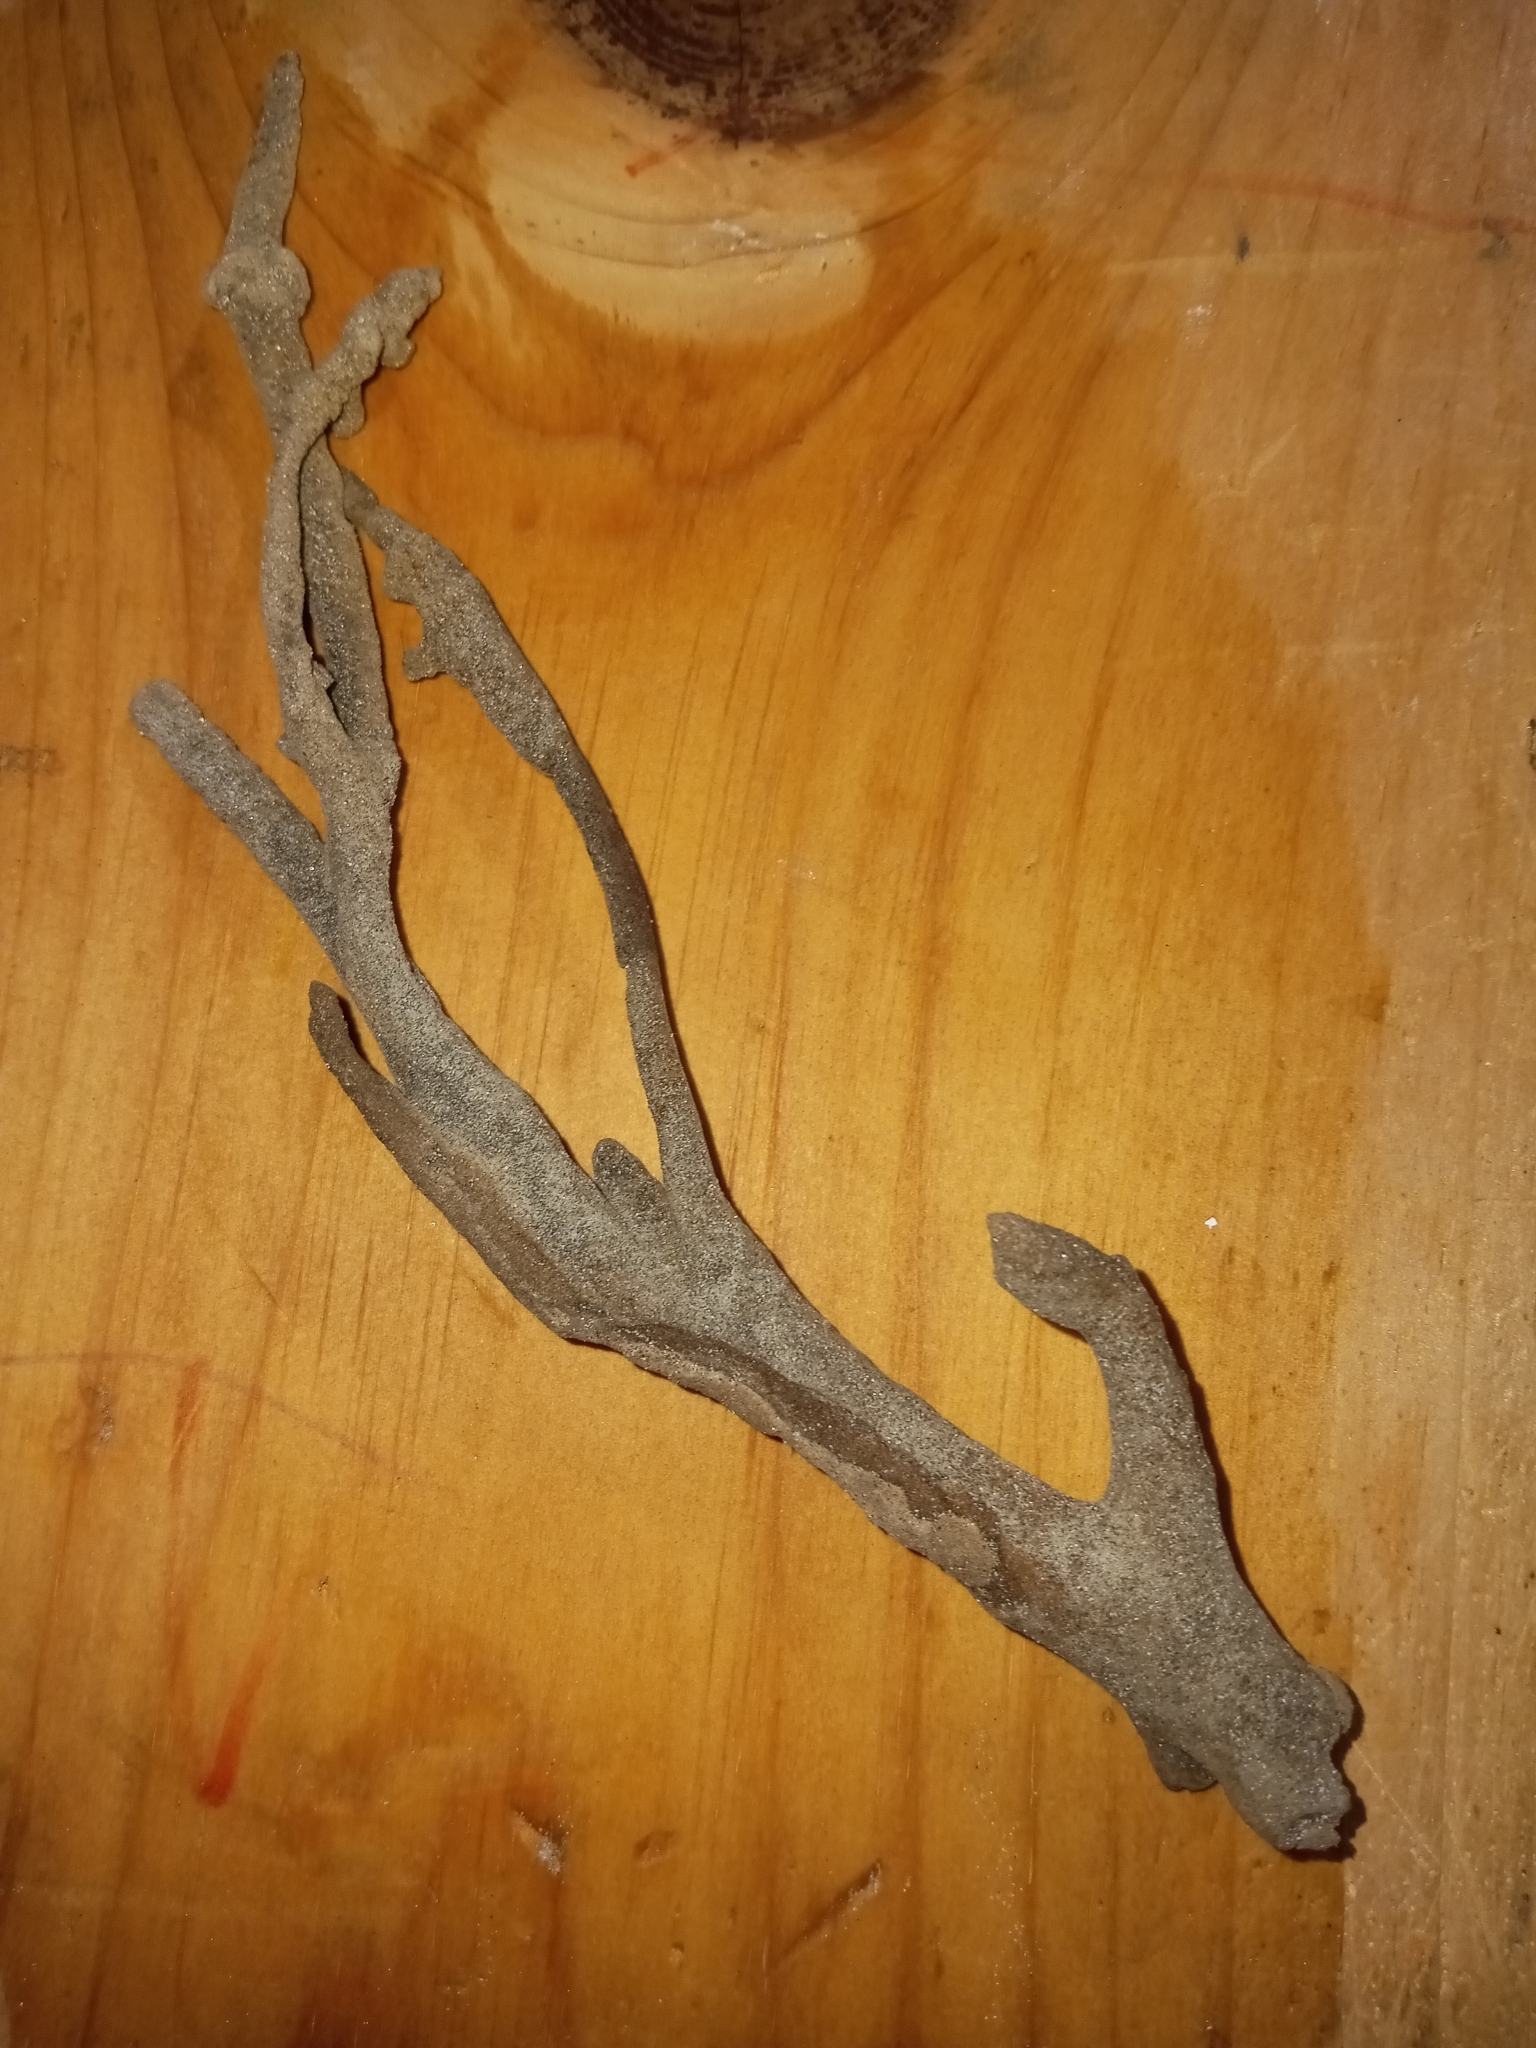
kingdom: Animalia
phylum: Porifera
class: Demospongiae
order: Haplosclerida
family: Chalinidae
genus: Haliclona
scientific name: Haliclona oculata
